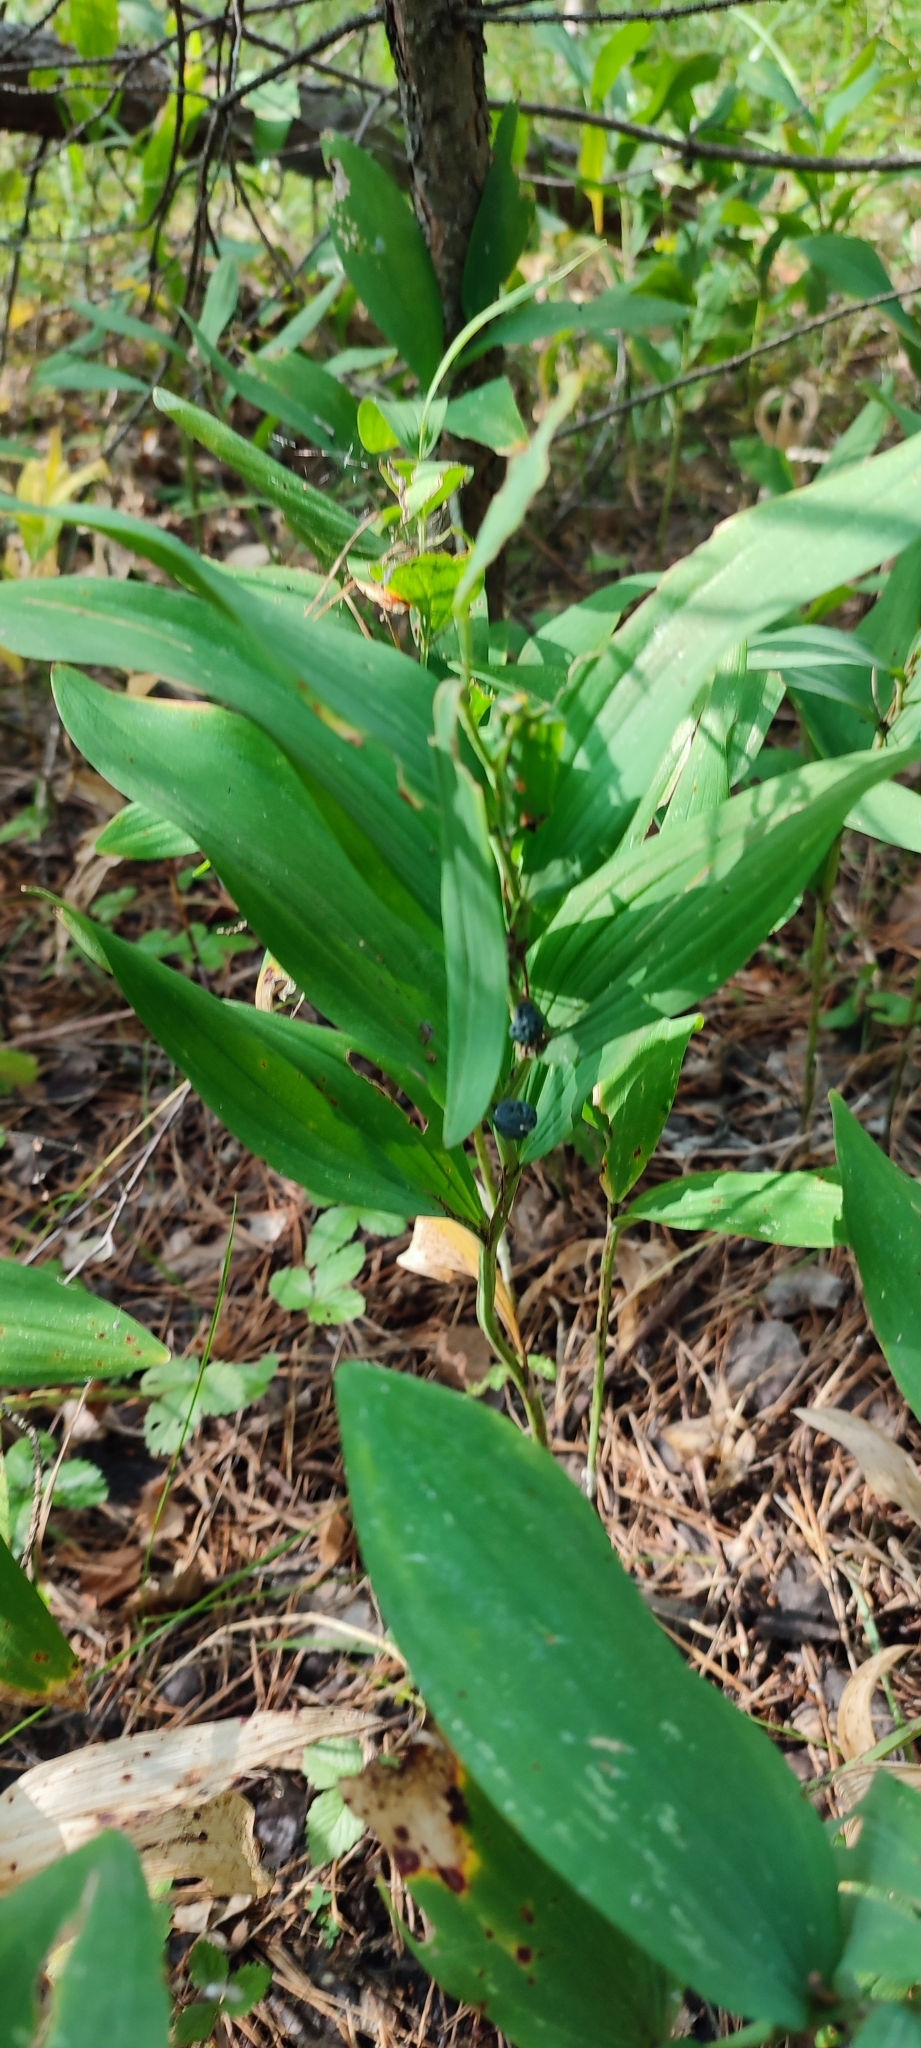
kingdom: Plantae
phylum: Tracheophyta
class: Liliopsida
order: Asparagales
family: Asparagaceae
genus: Polygonatum
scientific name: Polygonatum odoratum
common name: Angular solomon's-seal
